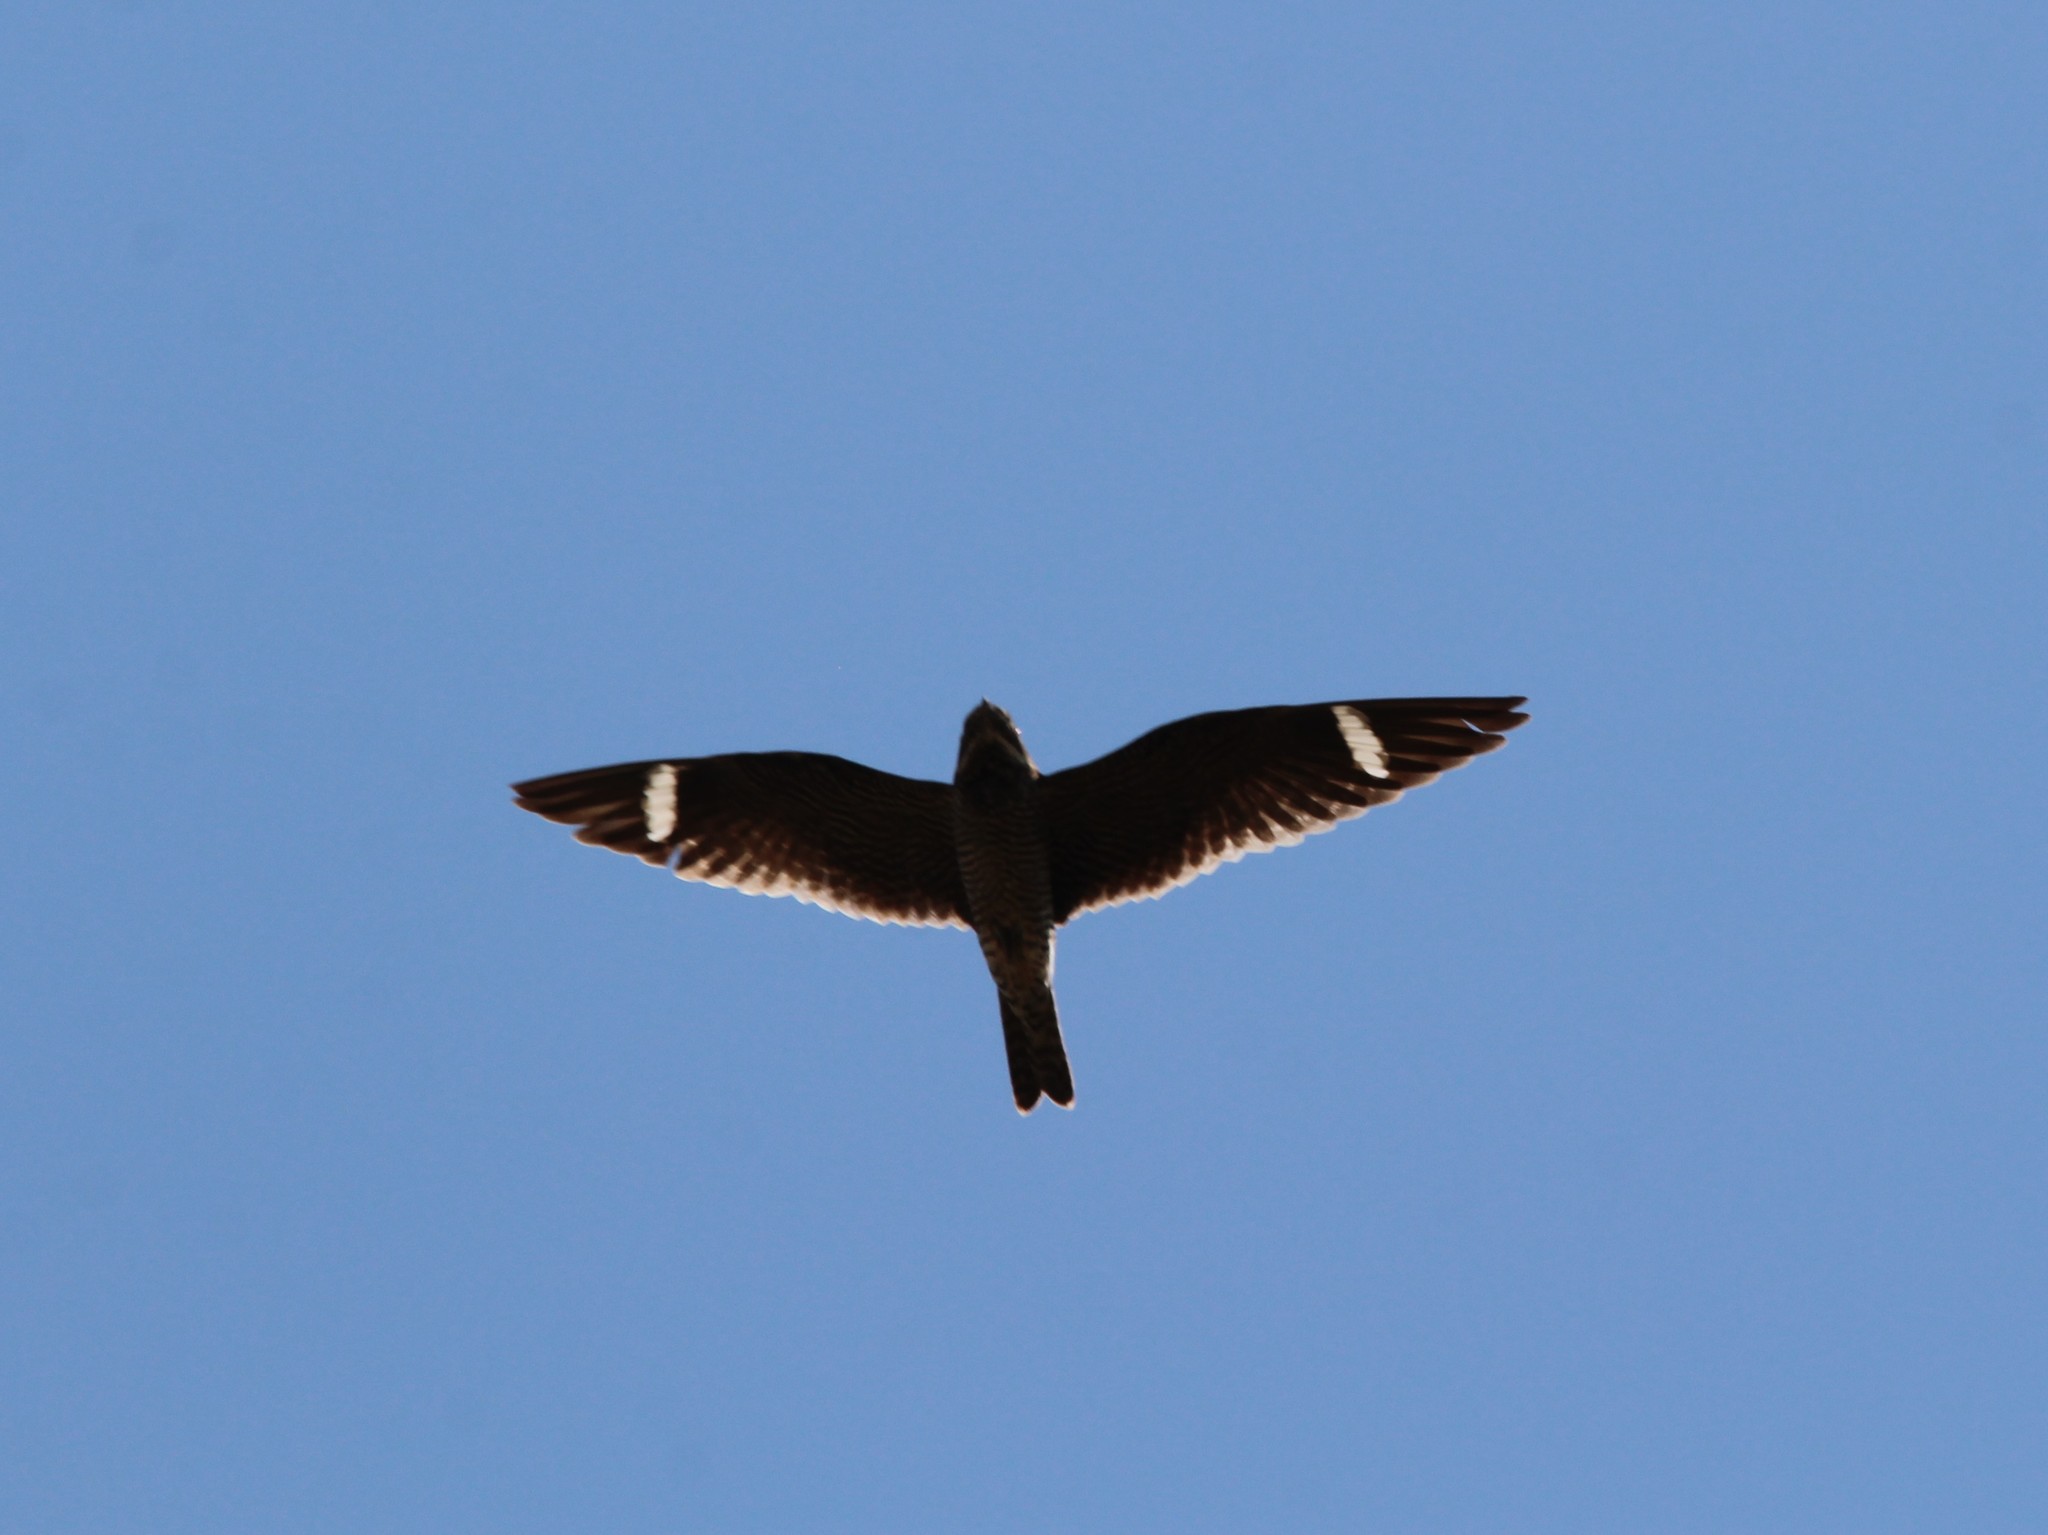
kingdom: Animalia
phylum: Chordata
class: Aves
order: Caprimulgiformes
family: Caprimulgidae
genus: Chordeiles
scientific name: Chordeiles minor
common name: Common nighthawk
